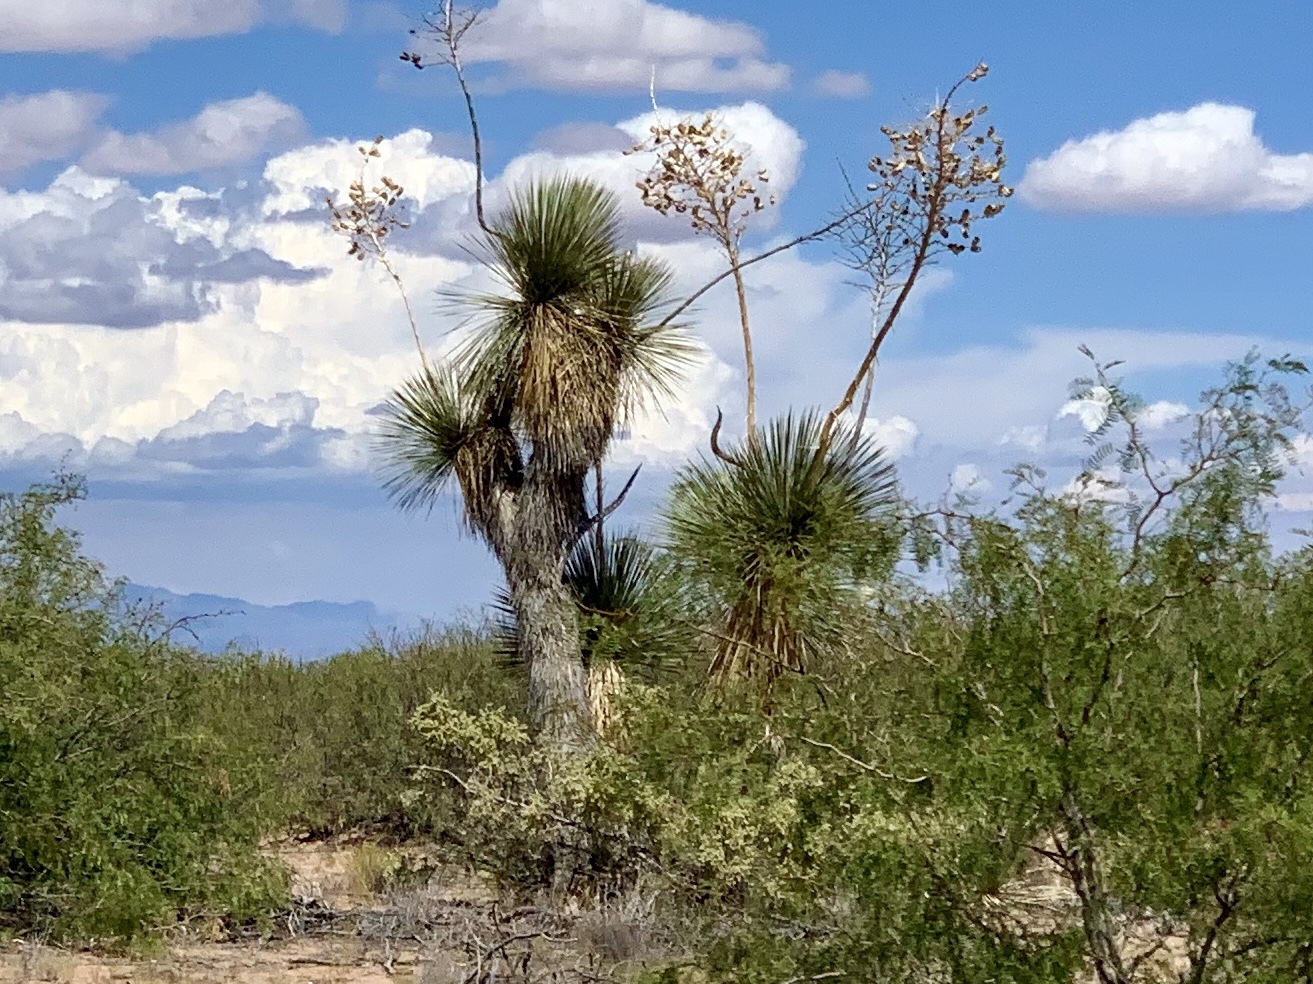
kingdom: Plantae
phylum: Tracheophyta
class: Liliopsida
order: Asparagales
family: Asparagaceae
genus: Yucca
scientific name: Yucca elata
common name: Palmella
